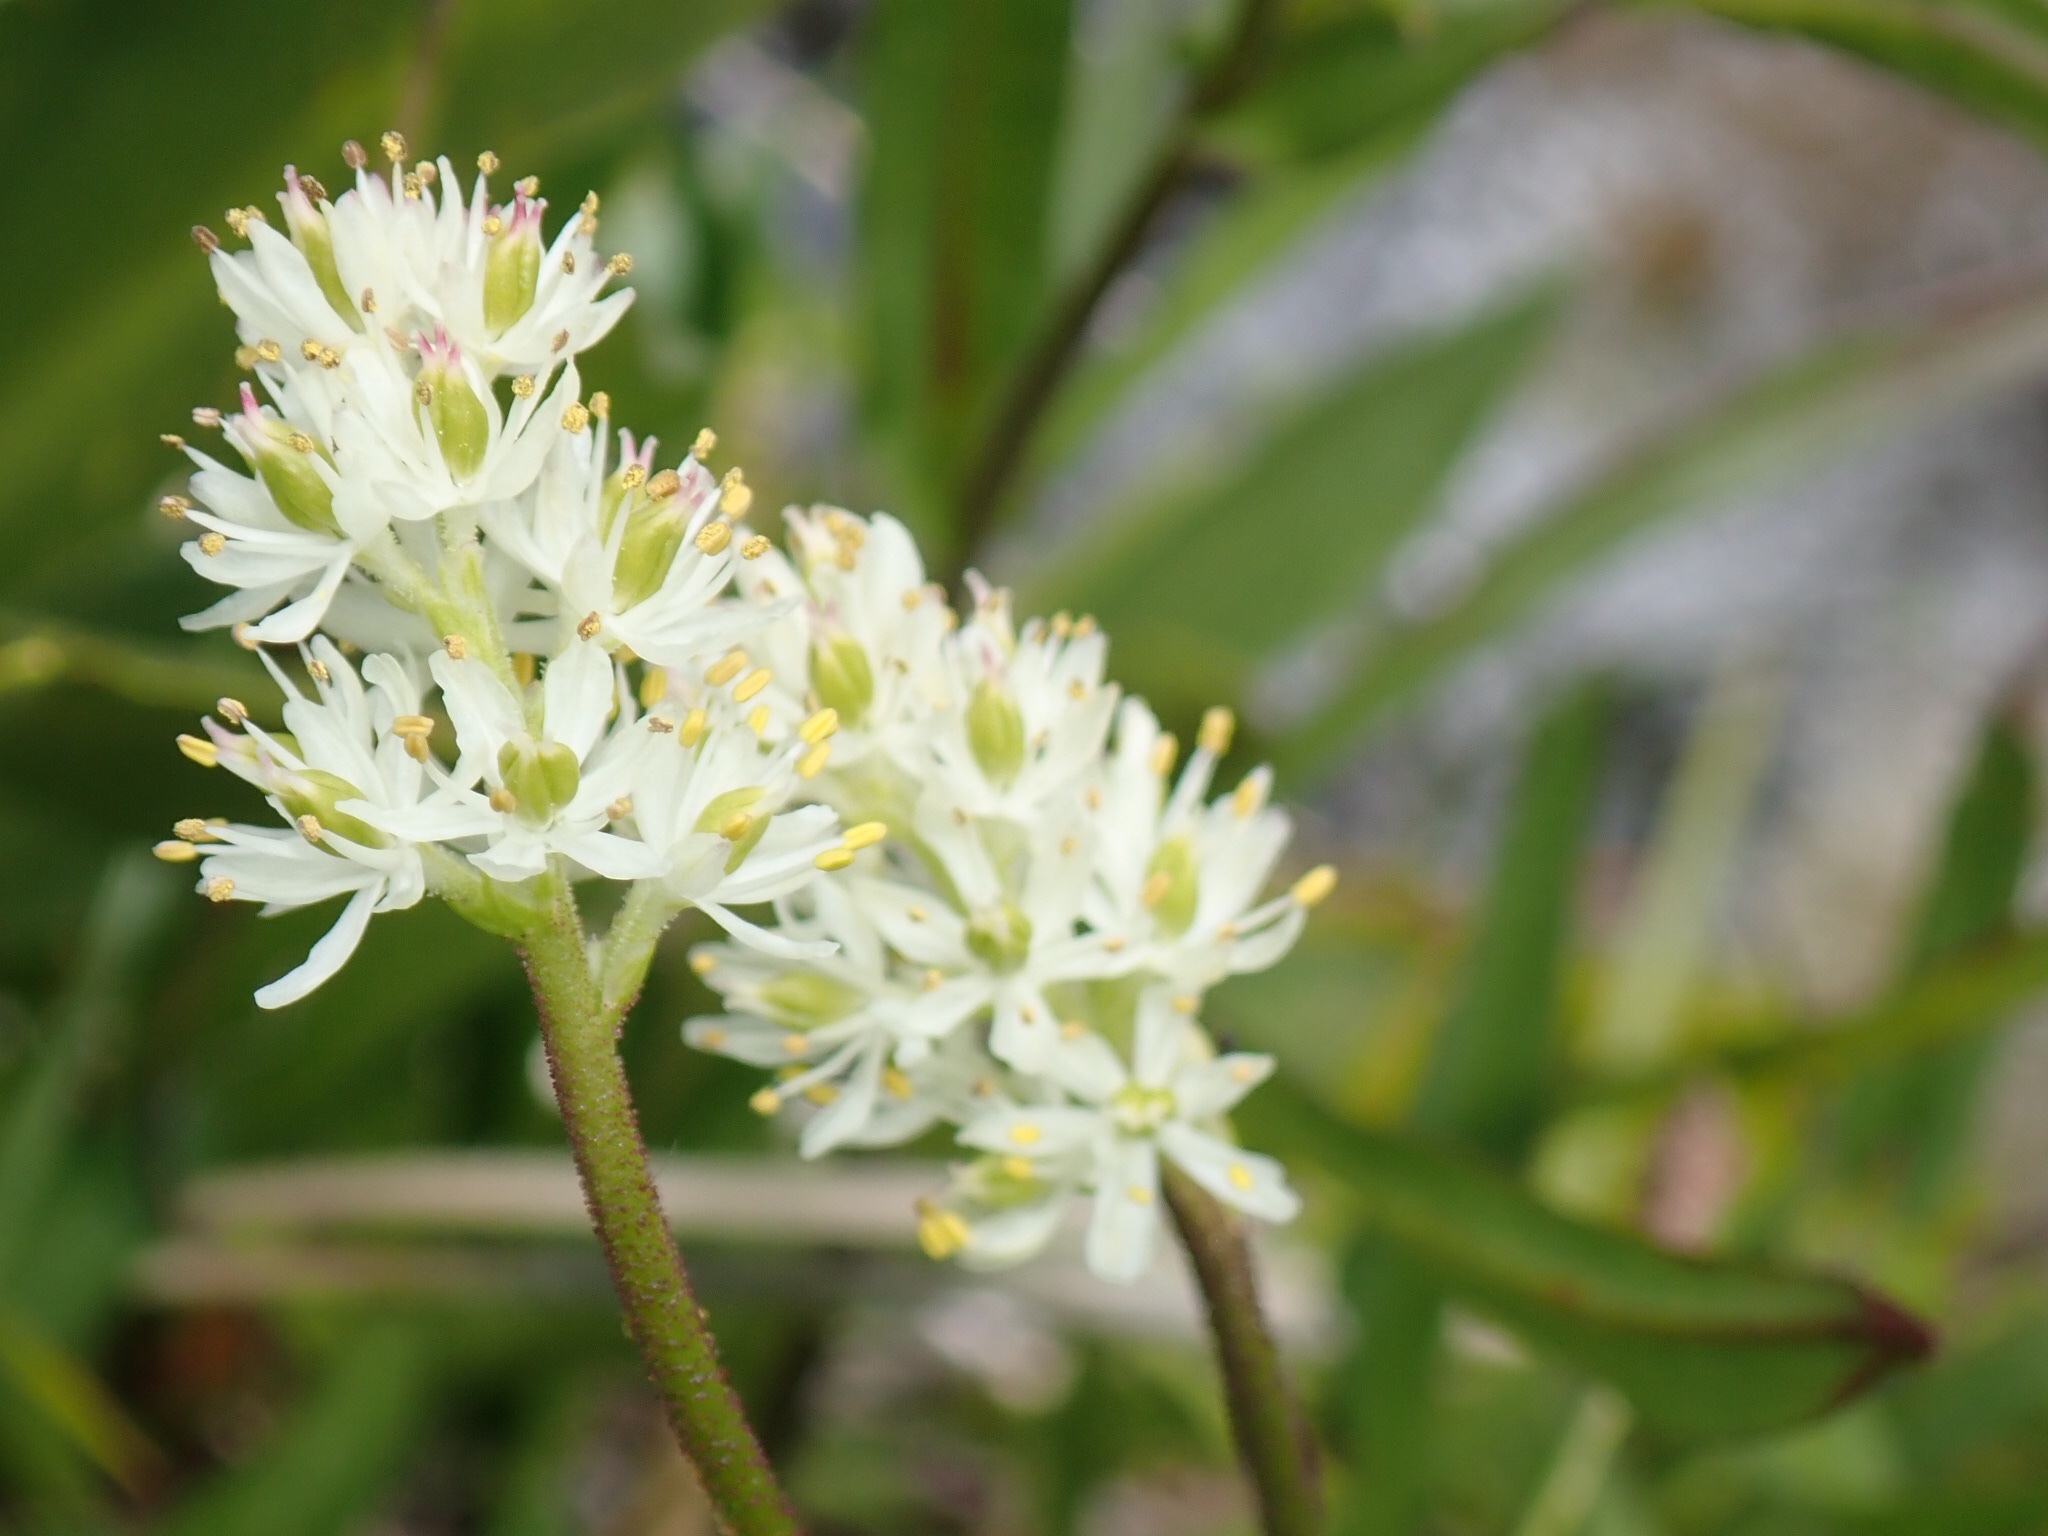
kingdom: Plantae
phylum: Tracheophyta
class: Liliopsida
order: Alismatales
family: Tofieldiaceae
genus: Triantha
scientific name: Triantha occidentalis
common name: Western false asphodel
